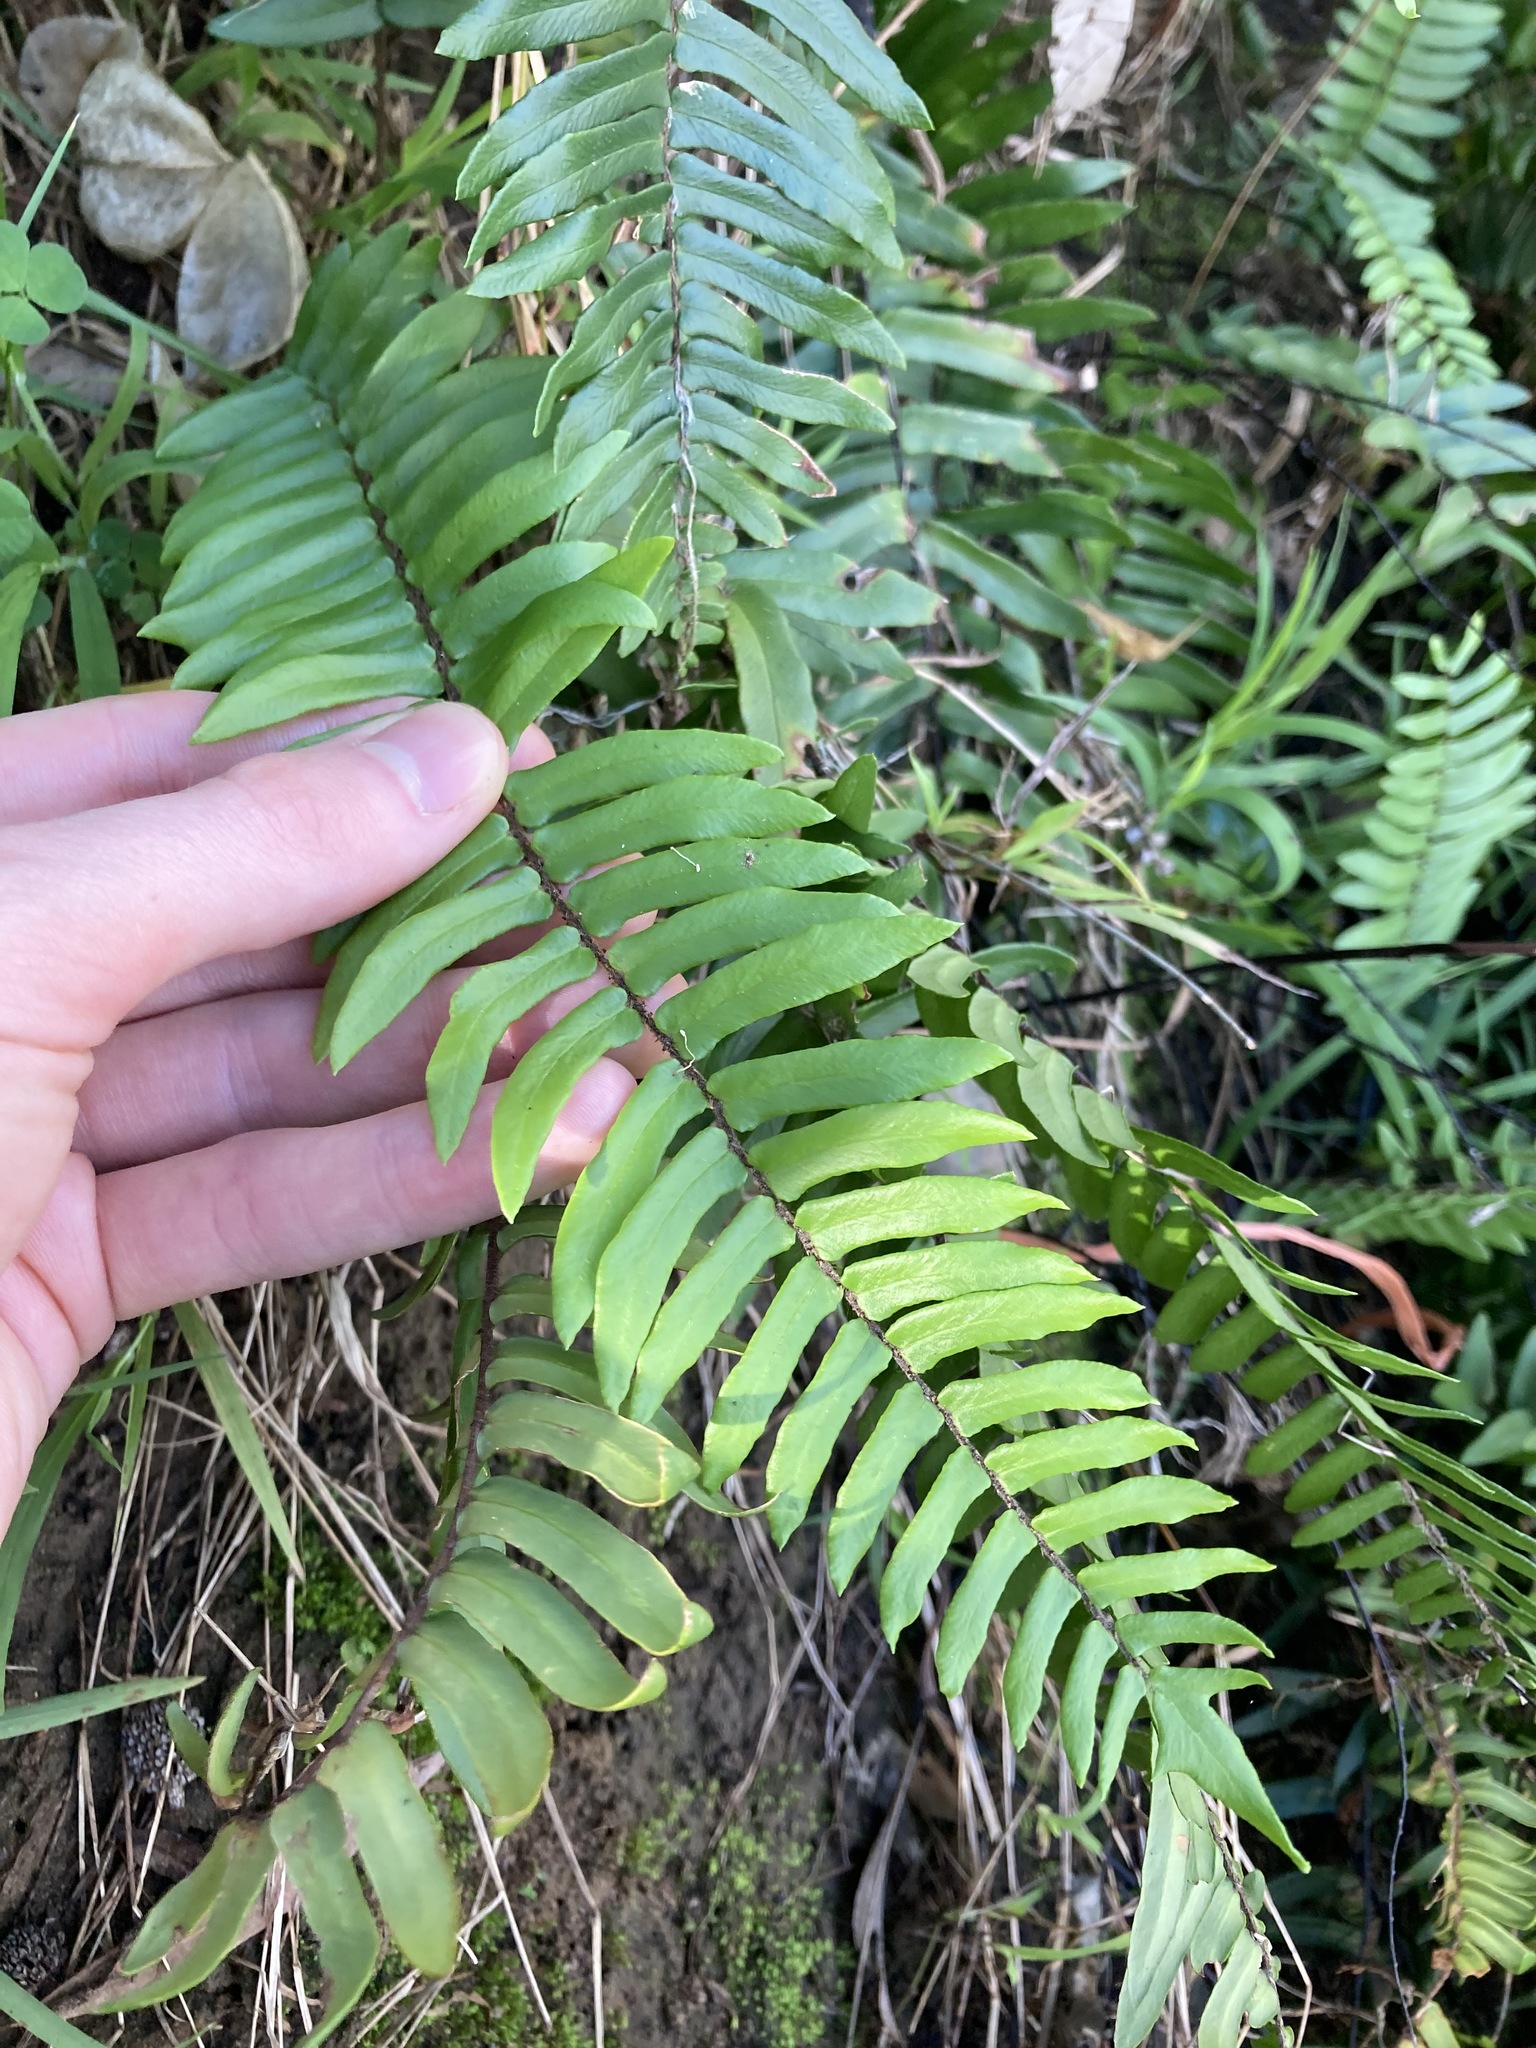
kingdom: Plantae
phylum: Tracheophyta
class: Polypodiopsida
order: Polypodiales
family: Pteridaceae
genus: Pellaea
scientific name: Pellaea falcata
